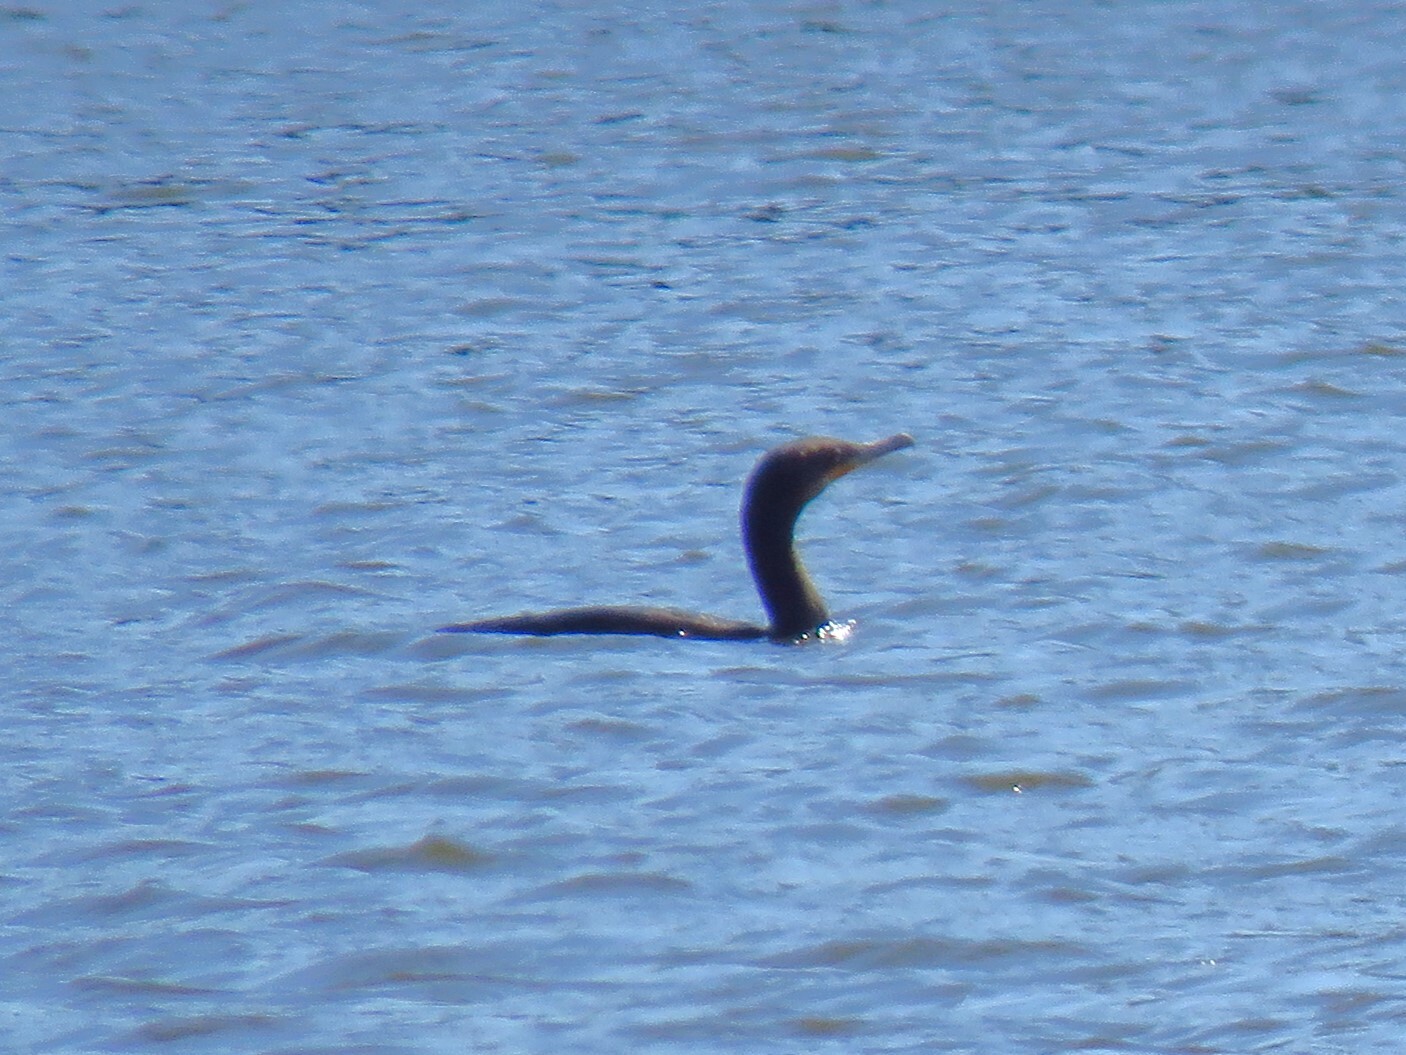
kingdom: Animalia
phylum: Chordata
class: Aves
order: Suliformes
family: Phalacrocoracidae
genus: Phalacrocorax
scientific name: Phalacrocorax auritus
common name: Double-crested cormorant
